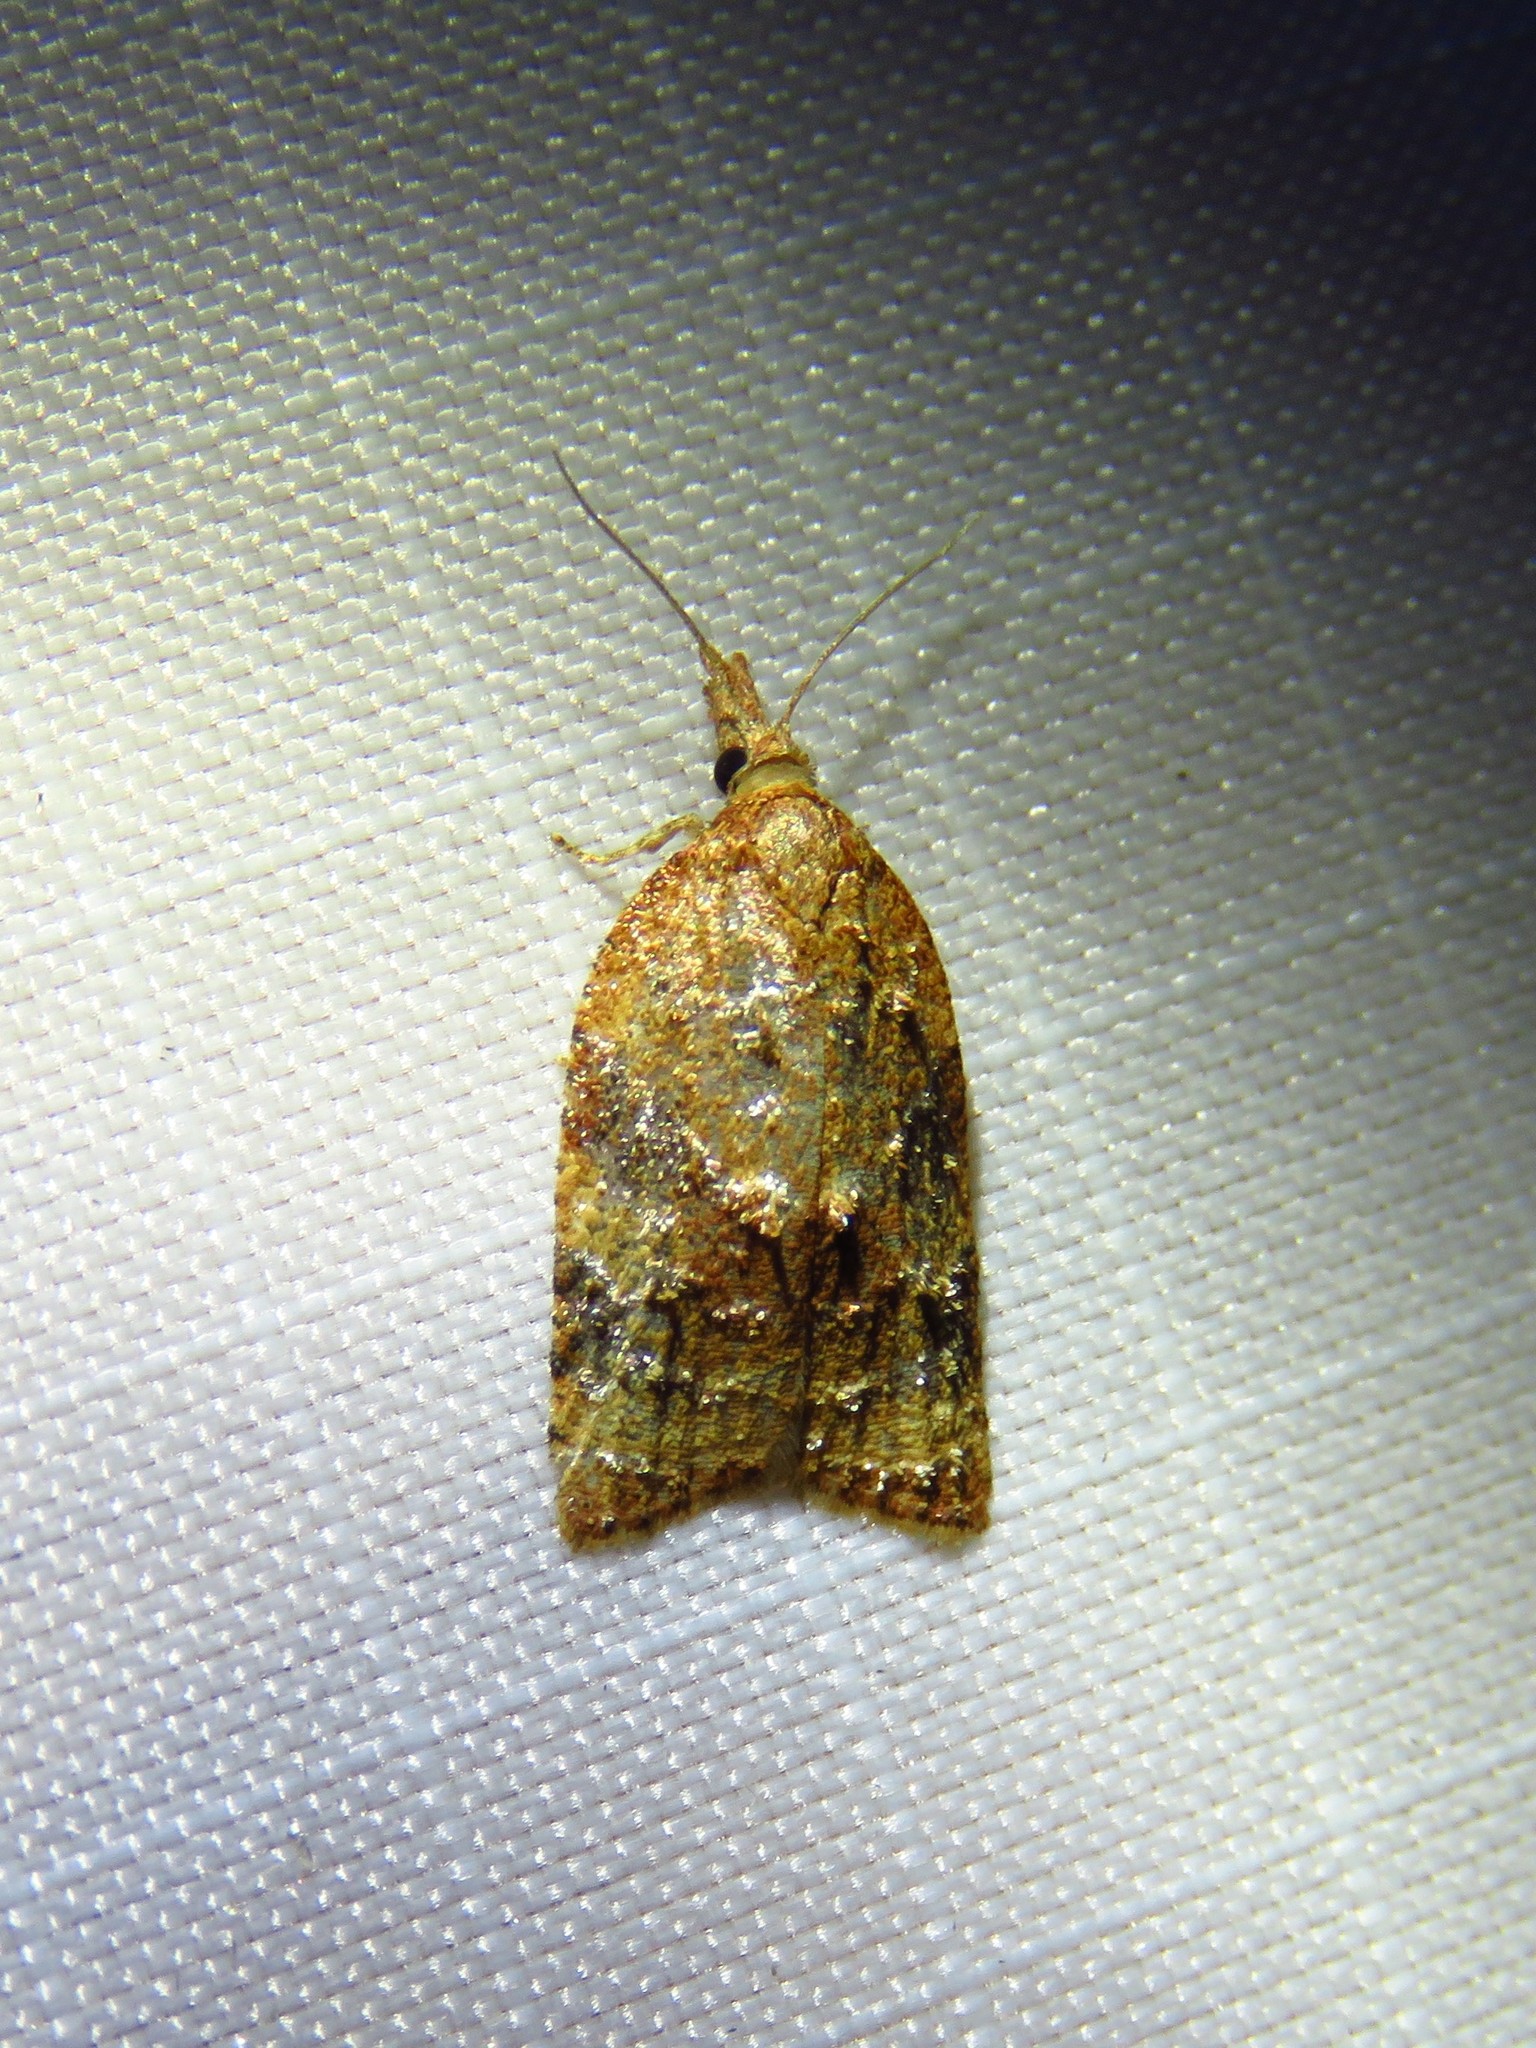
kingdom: Animalia
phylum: Arthropoda
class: Insecta
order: Lepidoptera
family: Tortricidae
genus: Platynota
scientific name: Platynota flavedana
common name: Black-shaded platynota moth
